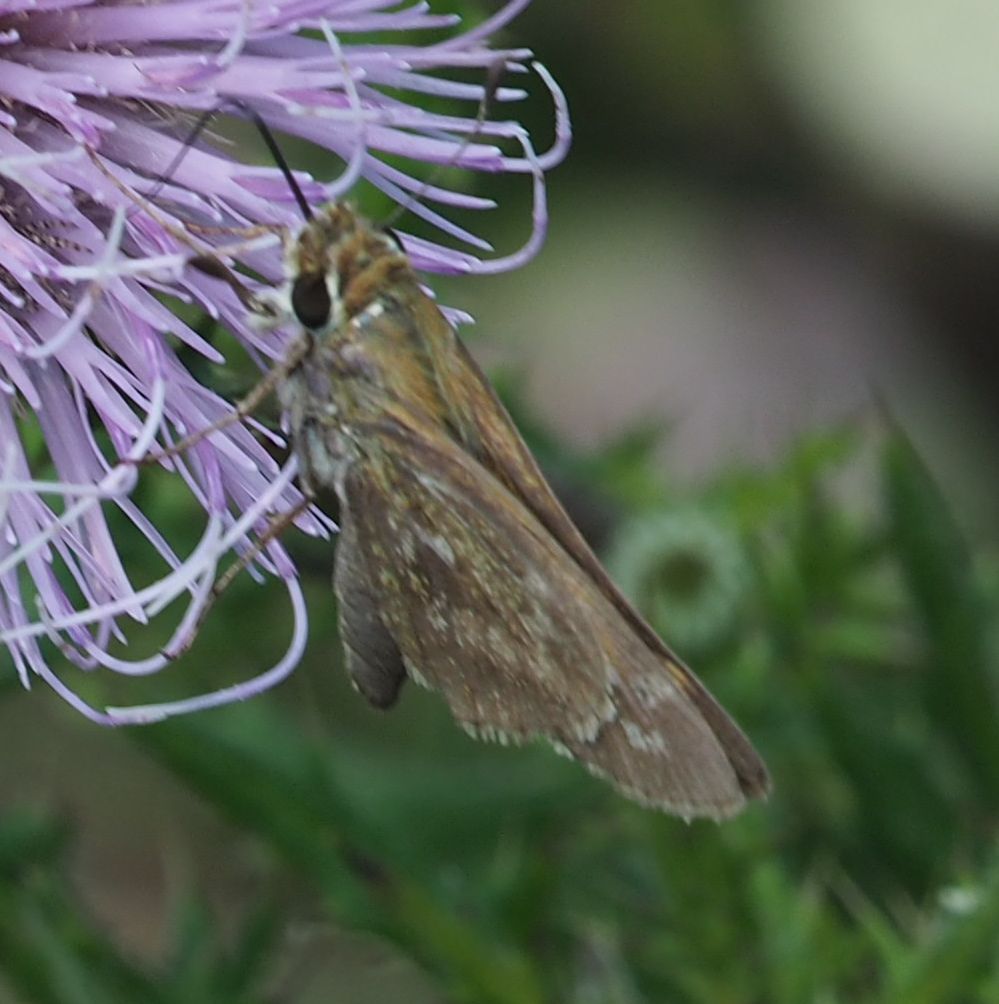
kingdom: Animalia
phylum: Arthropoda
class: Insecta
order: Lepidoptera
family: Hesperiidae
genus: Atalopedes
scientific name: Atalopedes
